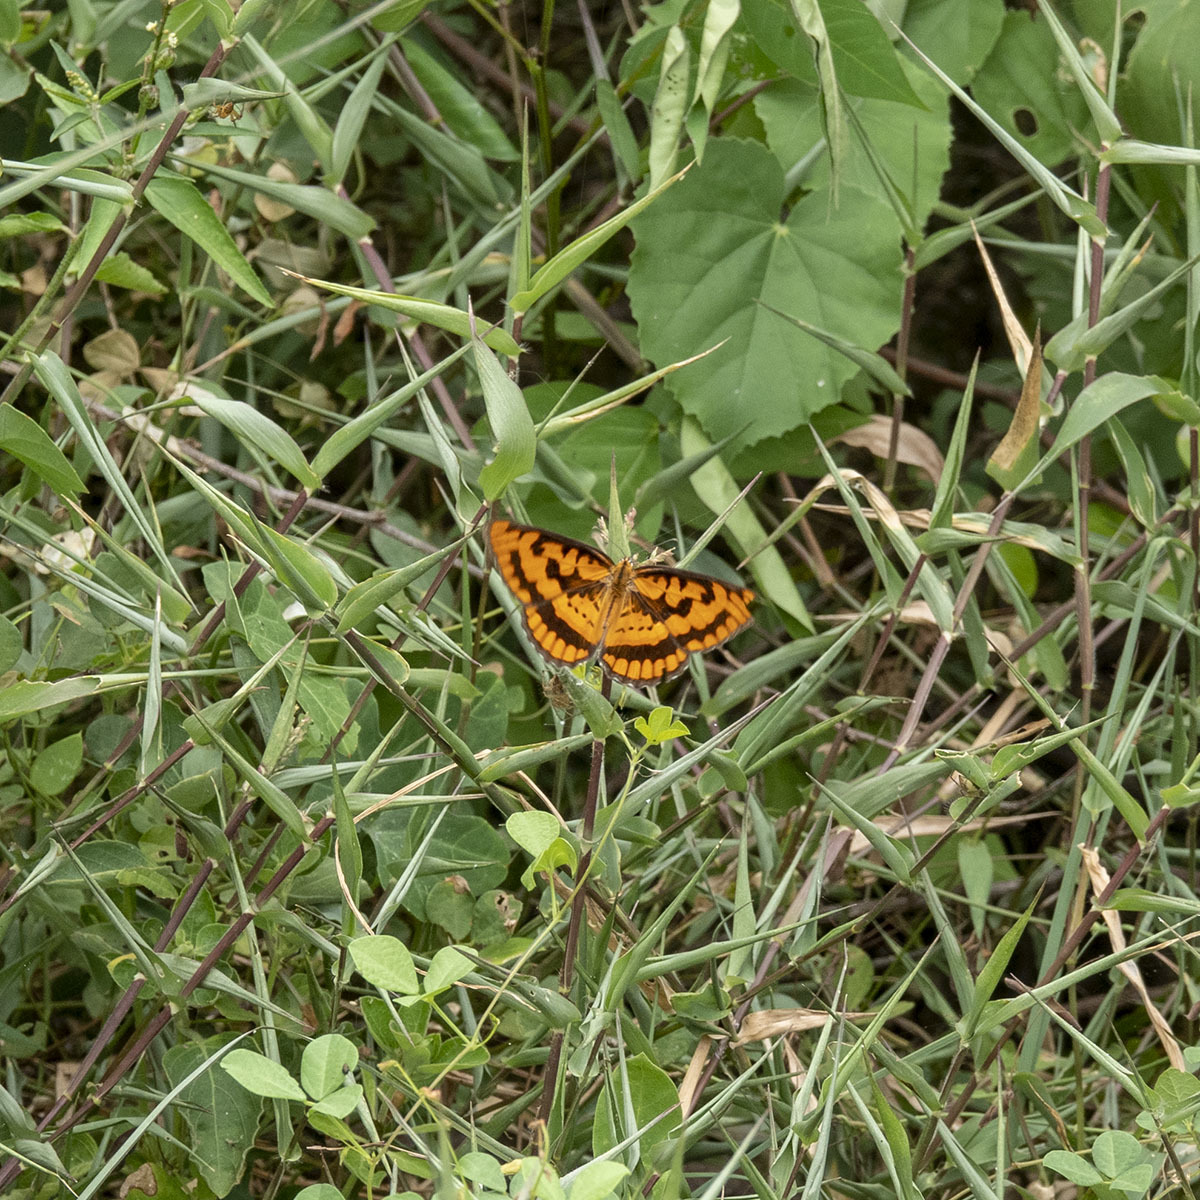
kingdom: Animalia
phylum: Arthropoda
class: Insecta
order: Lepidoptera
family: Nymphalidae
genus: Byblia
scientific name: Byblia ilithyia
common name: Spotted joker
